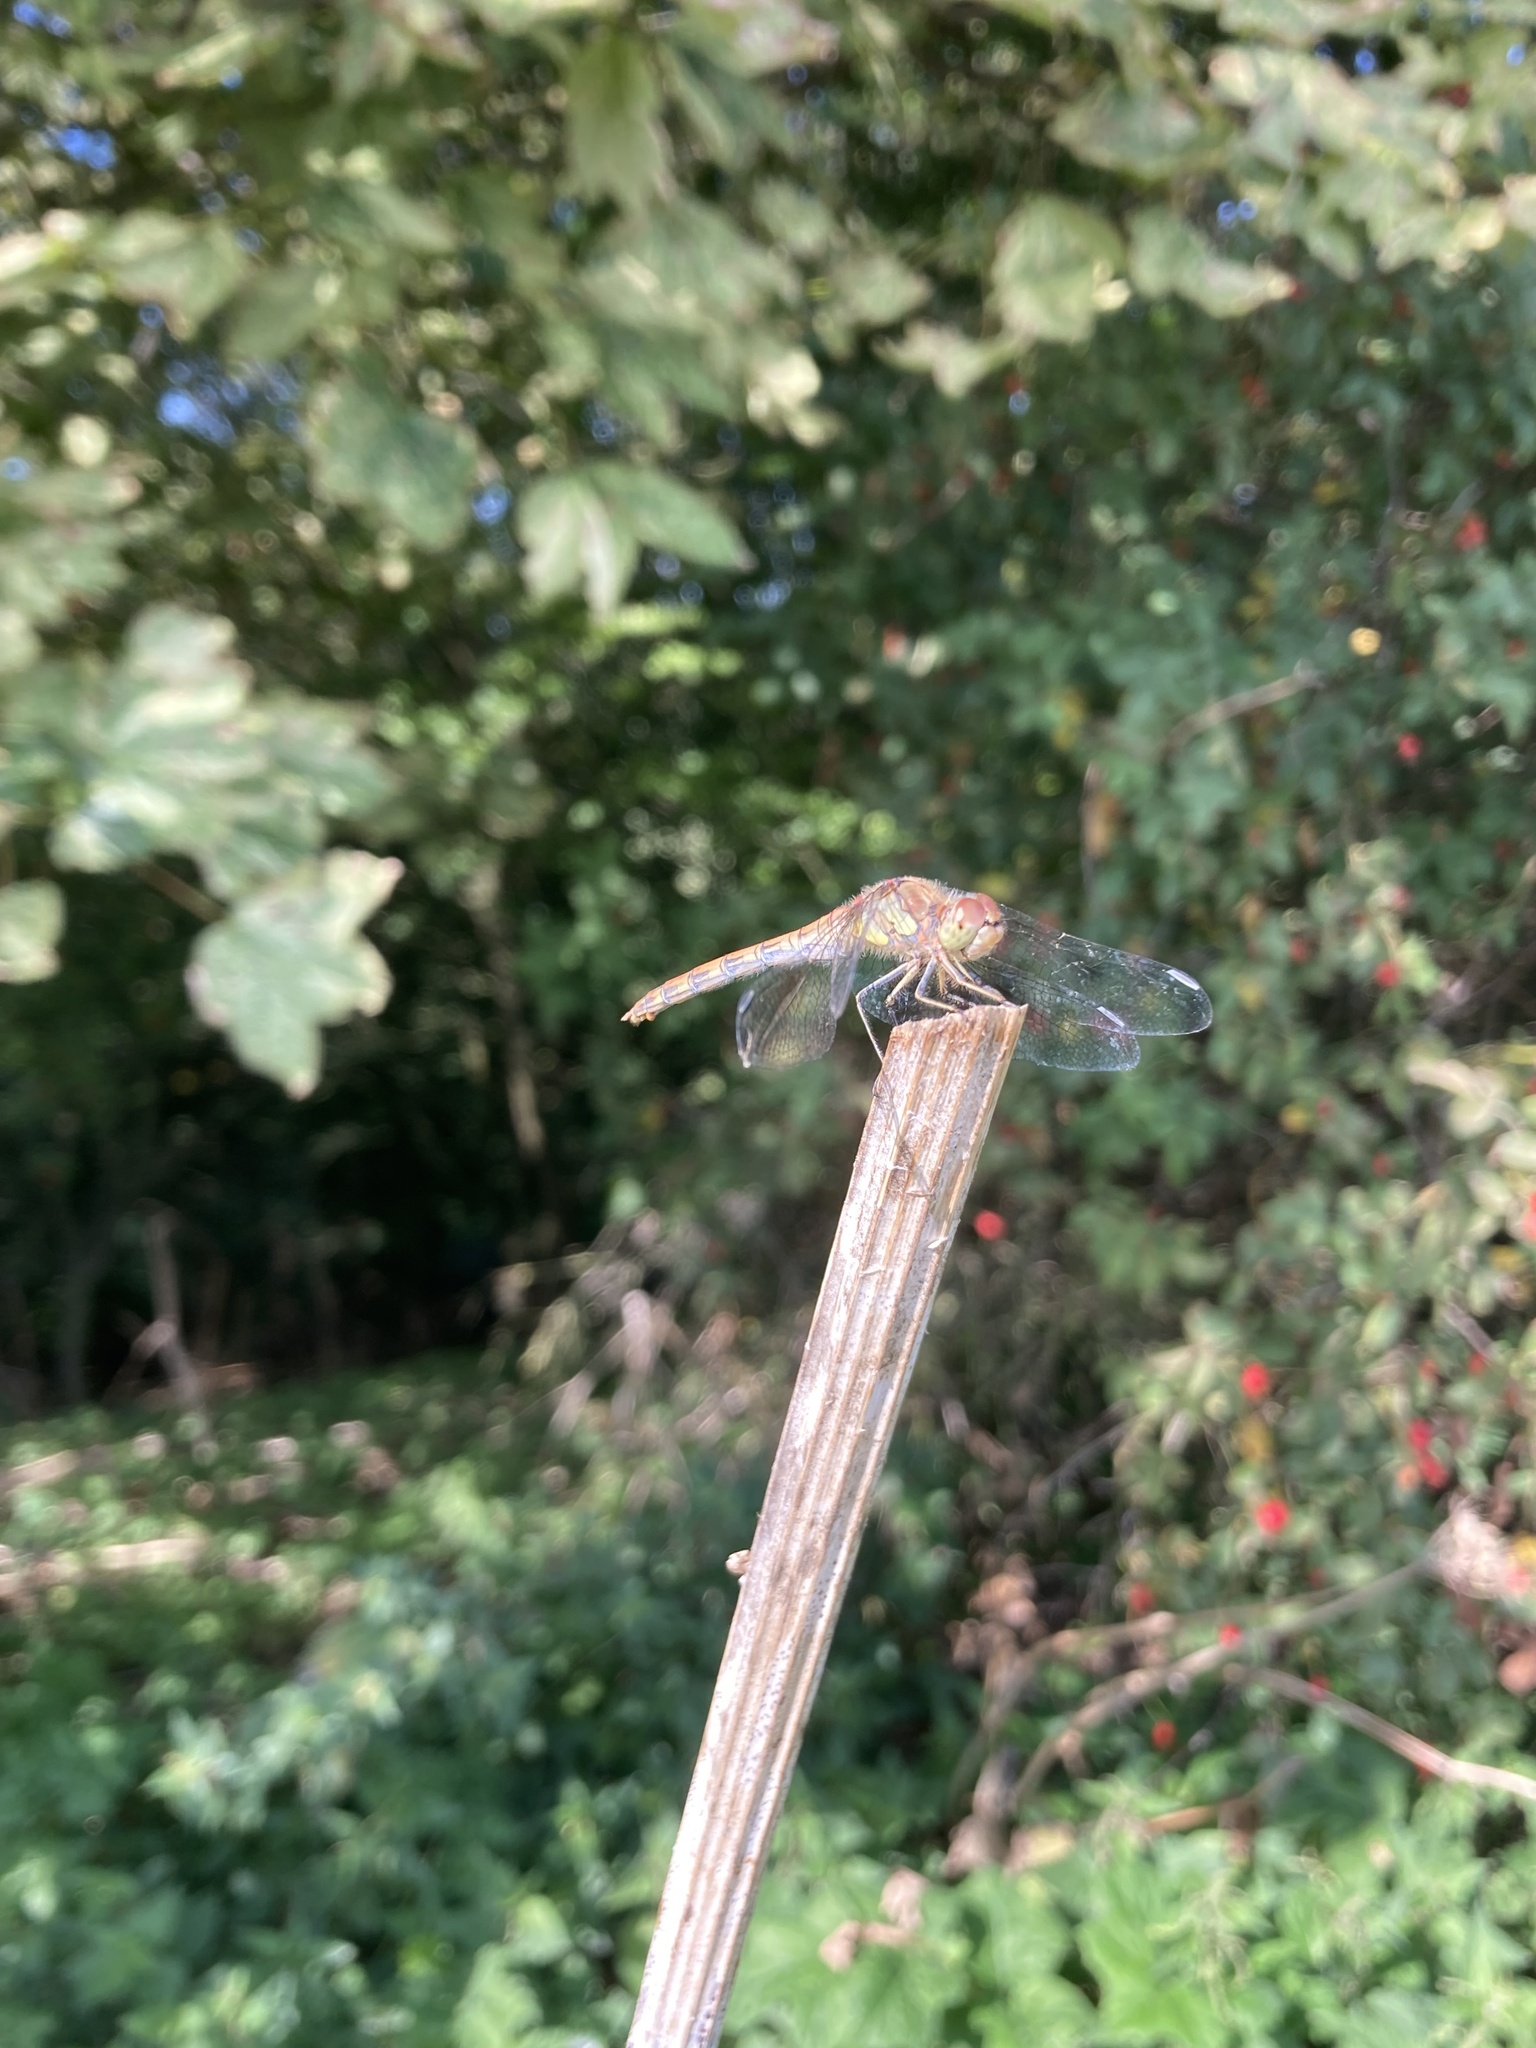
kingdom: Animalia
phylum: Arthropoda
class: Insecta
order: Odonata
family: Libellulidae
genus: Sympetrum
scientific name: Sympetrum striolatum
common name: Common darter
